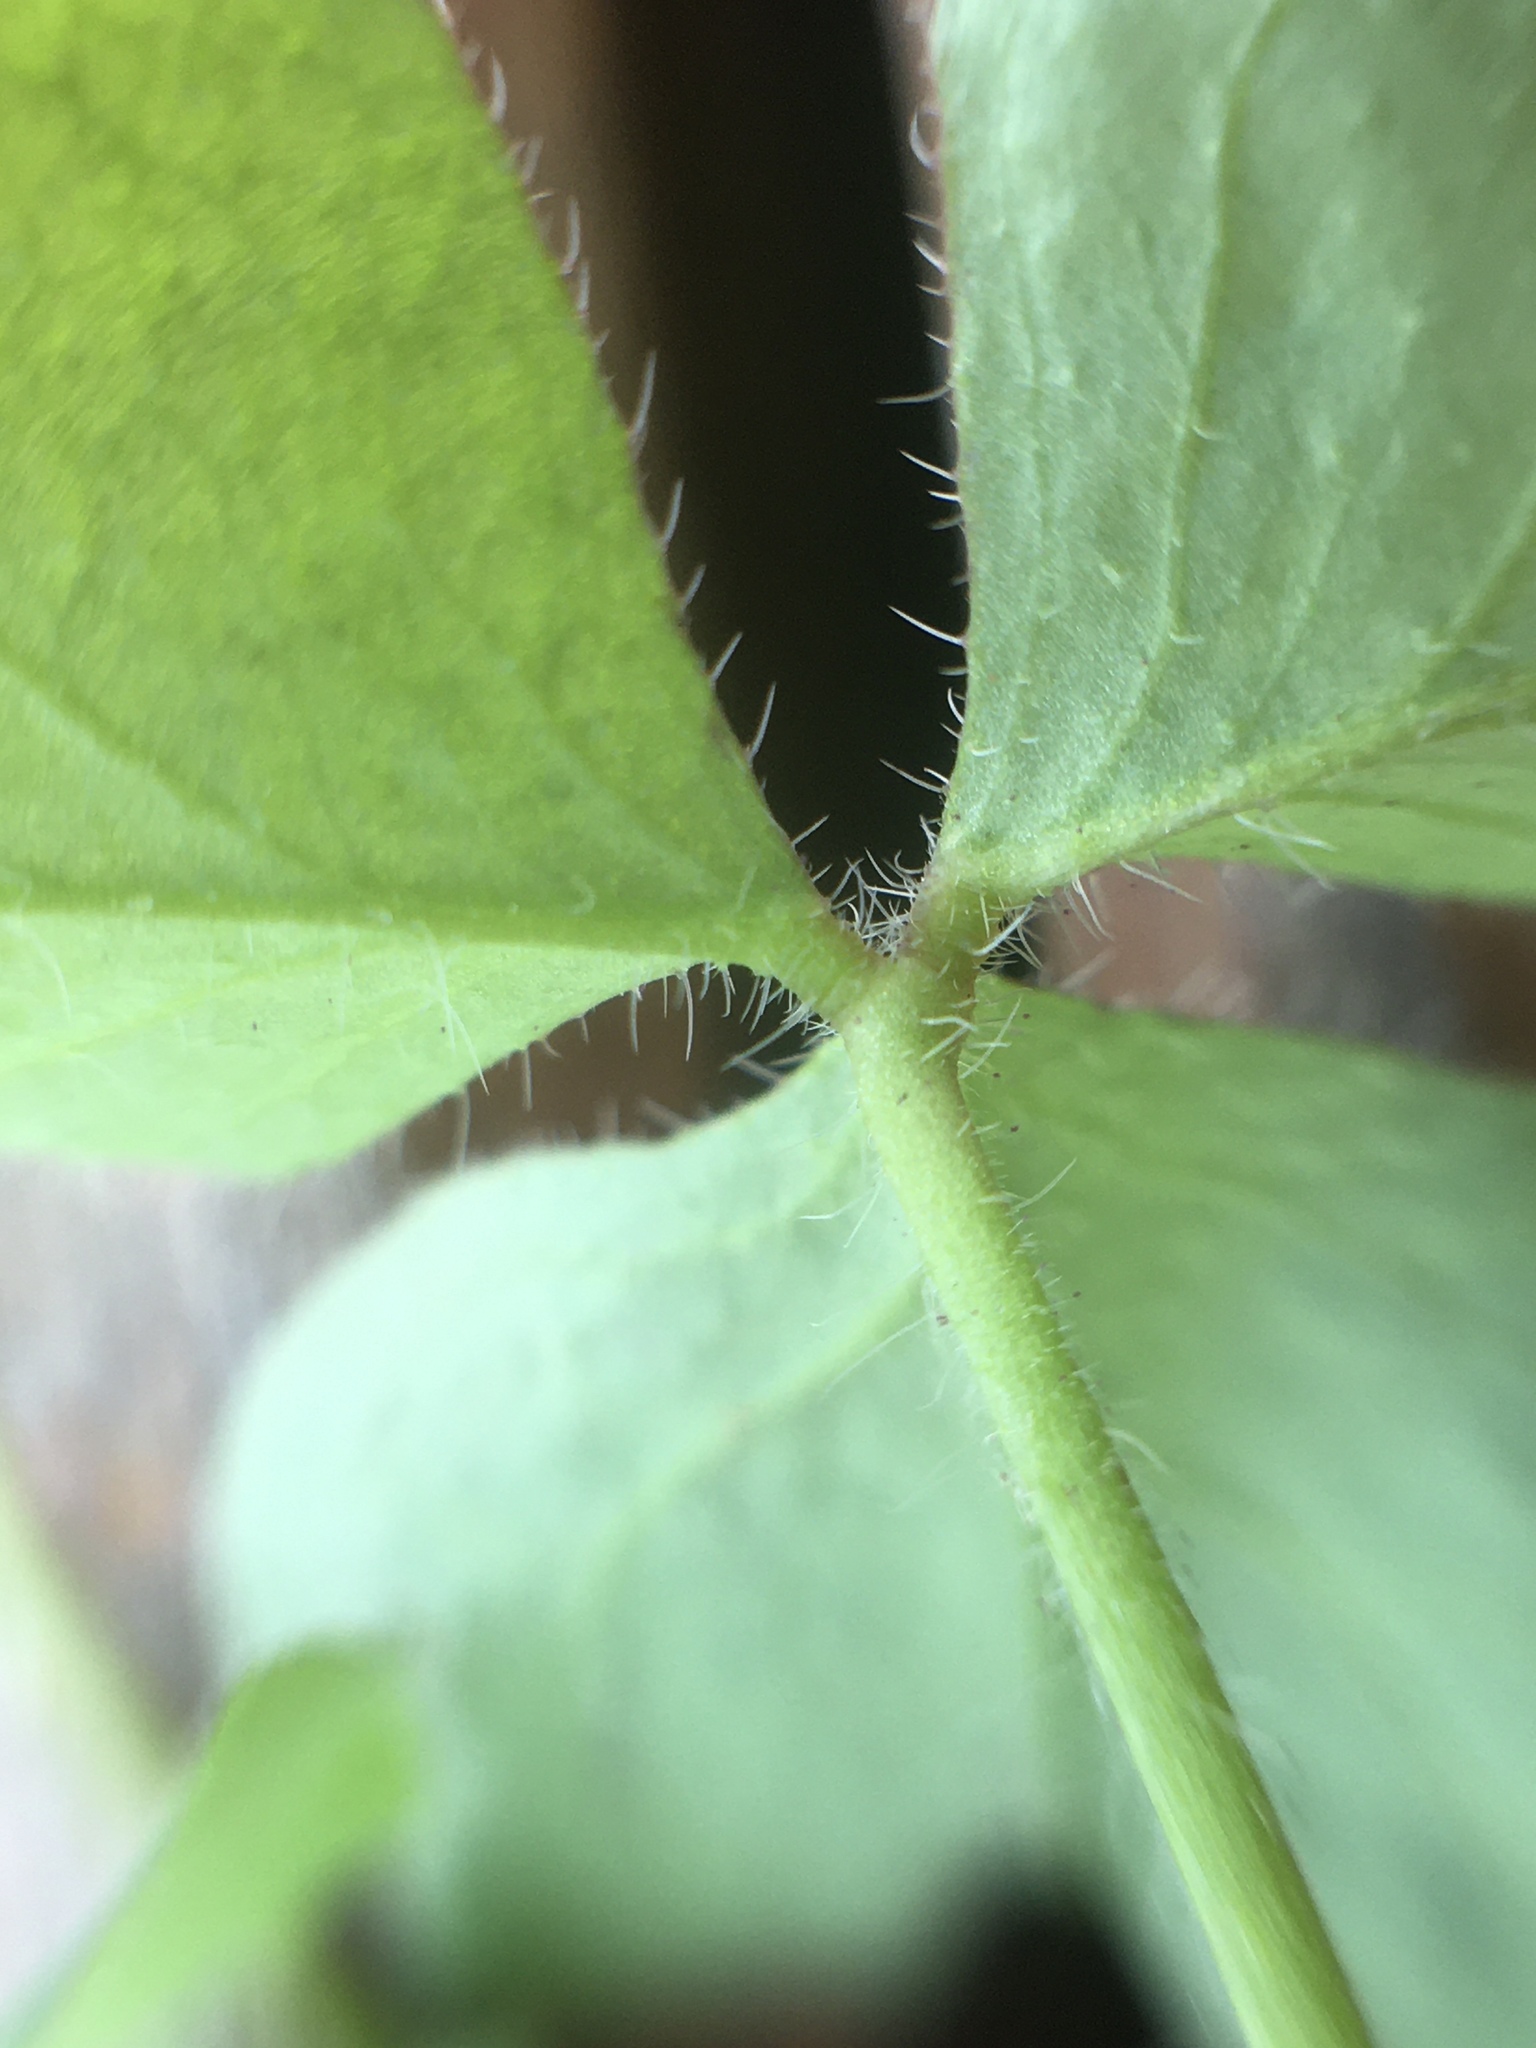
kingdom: Plantae
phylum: Tracheophyta
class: Magnoliopsida
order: Oxalidales
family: Oxalidaceae
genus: Oxalis
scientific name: Oxalis niederleinii
